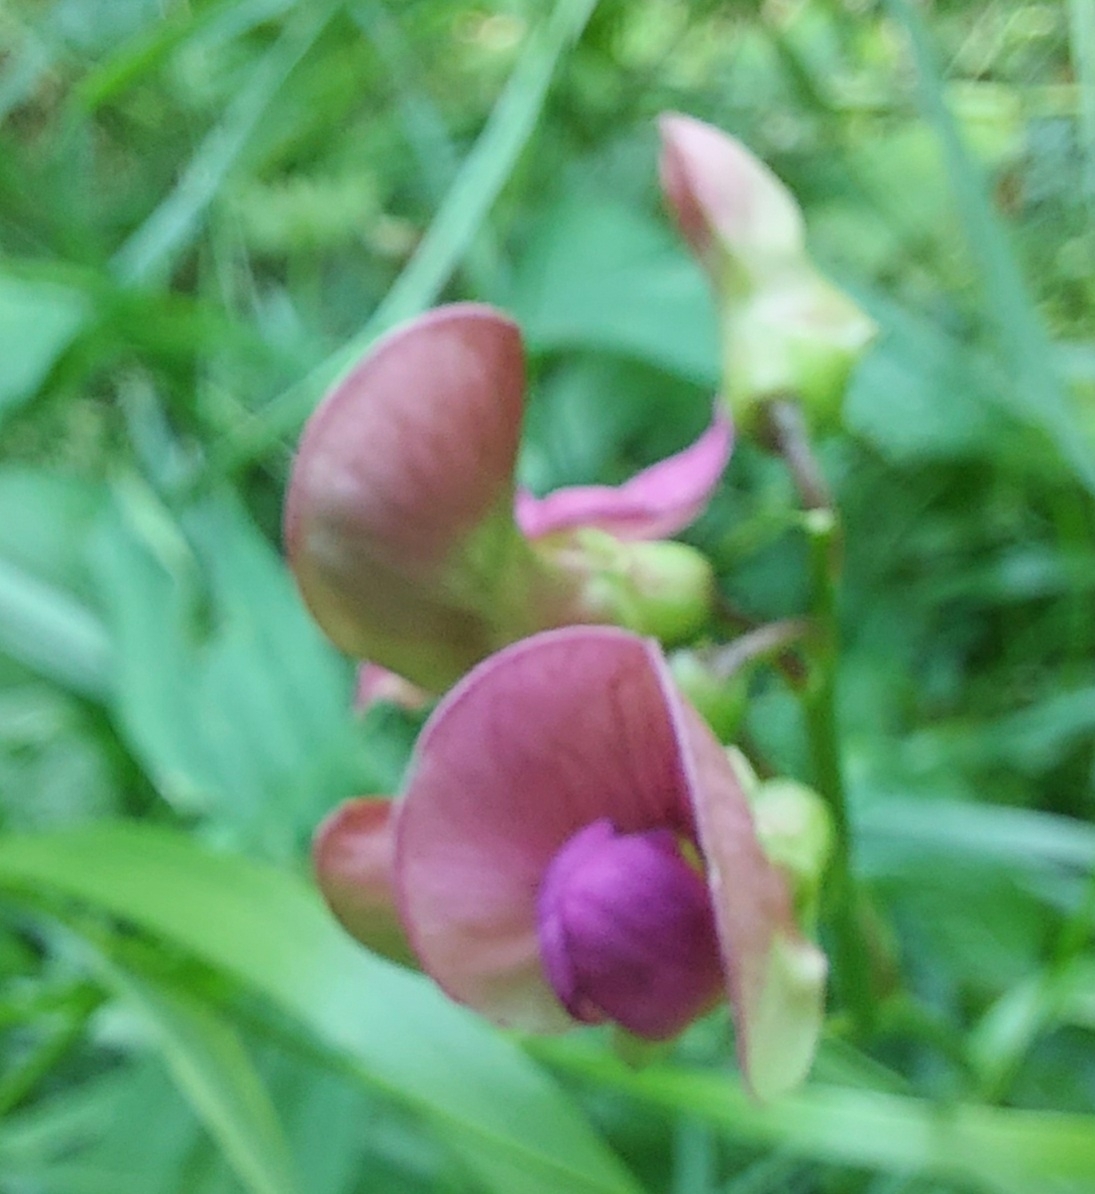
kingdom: Plantae
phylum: Tracheophyta
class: Magnoliopsida
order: Fabales
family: Fabaceae
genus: Lathyrus
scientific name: Lathyrus sylvestris
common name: Flat pea
